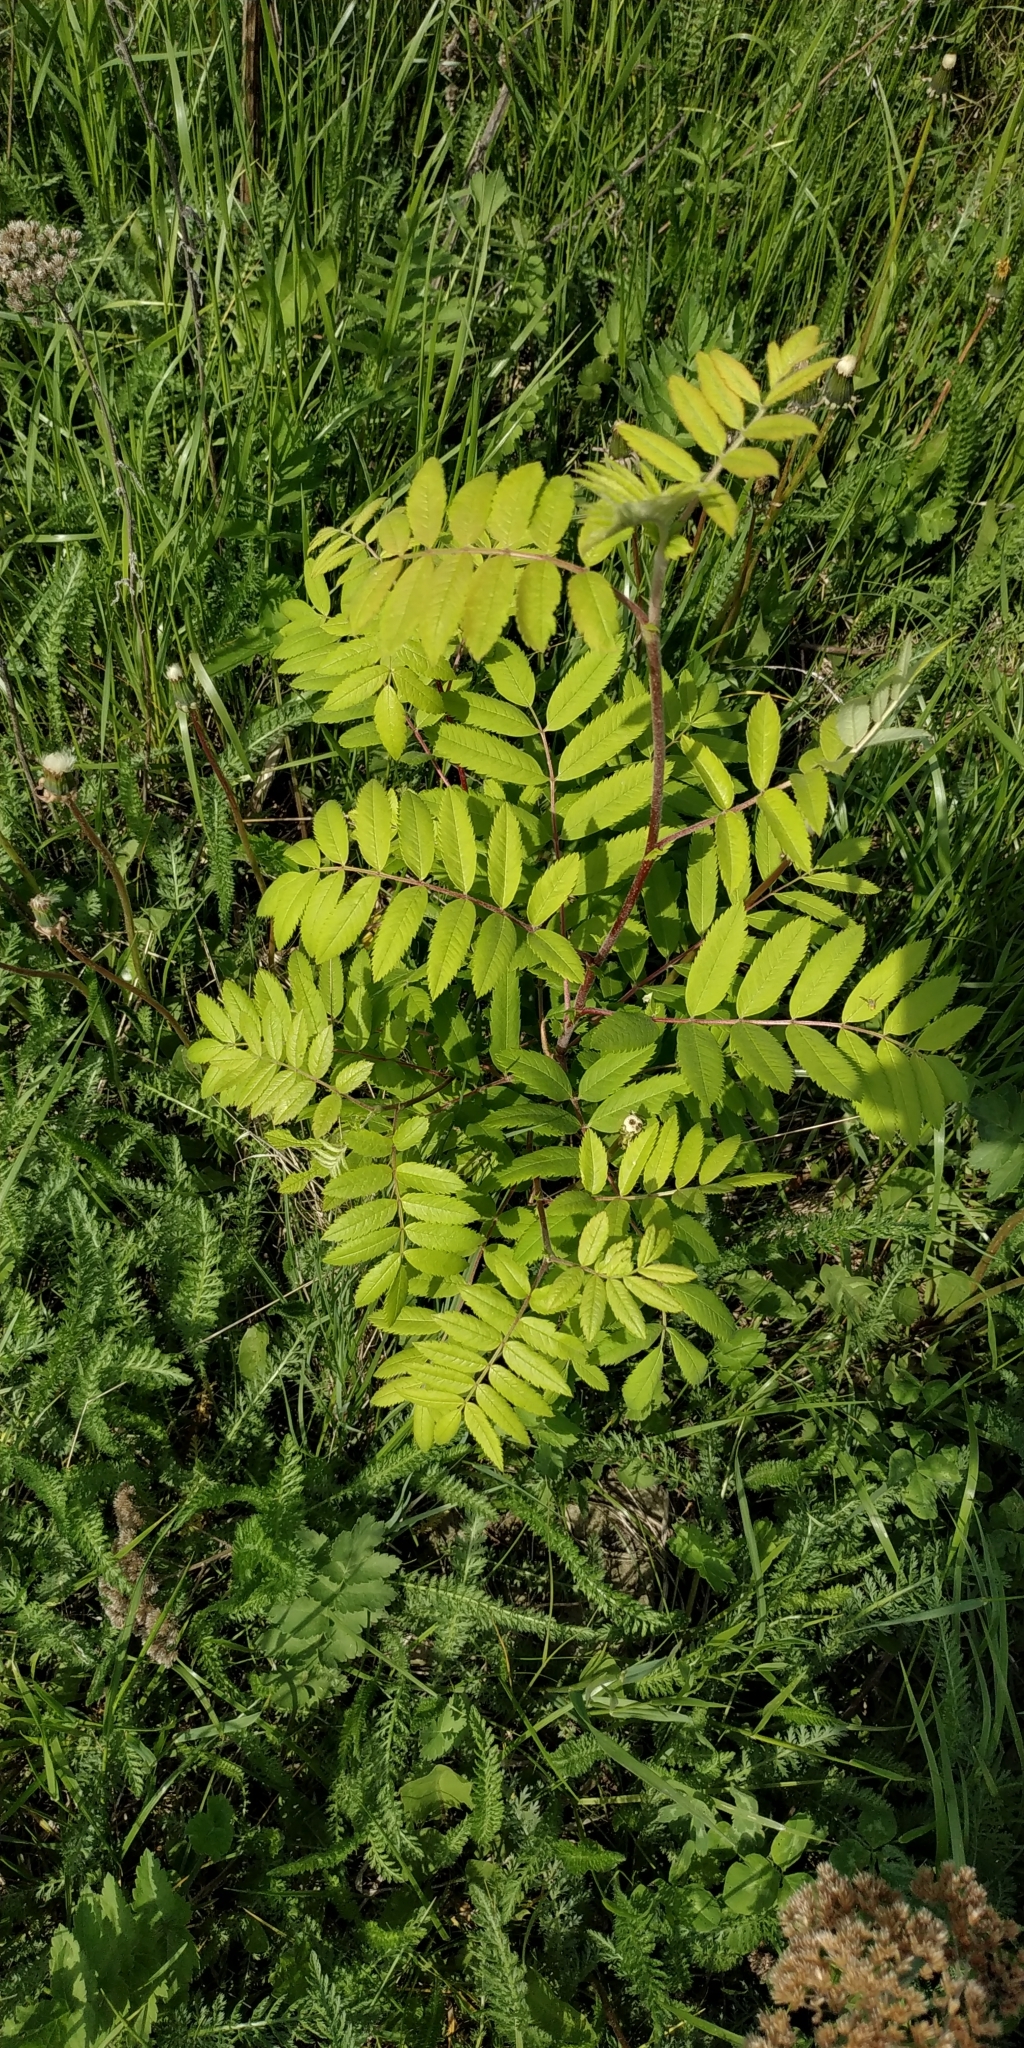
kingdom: Plantae
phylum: Tracheophyta
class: Magnoliopsida
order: Rosales
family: Rosaceae
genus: Sorbus
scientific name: Sorbus aucuparia
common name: Rowan
